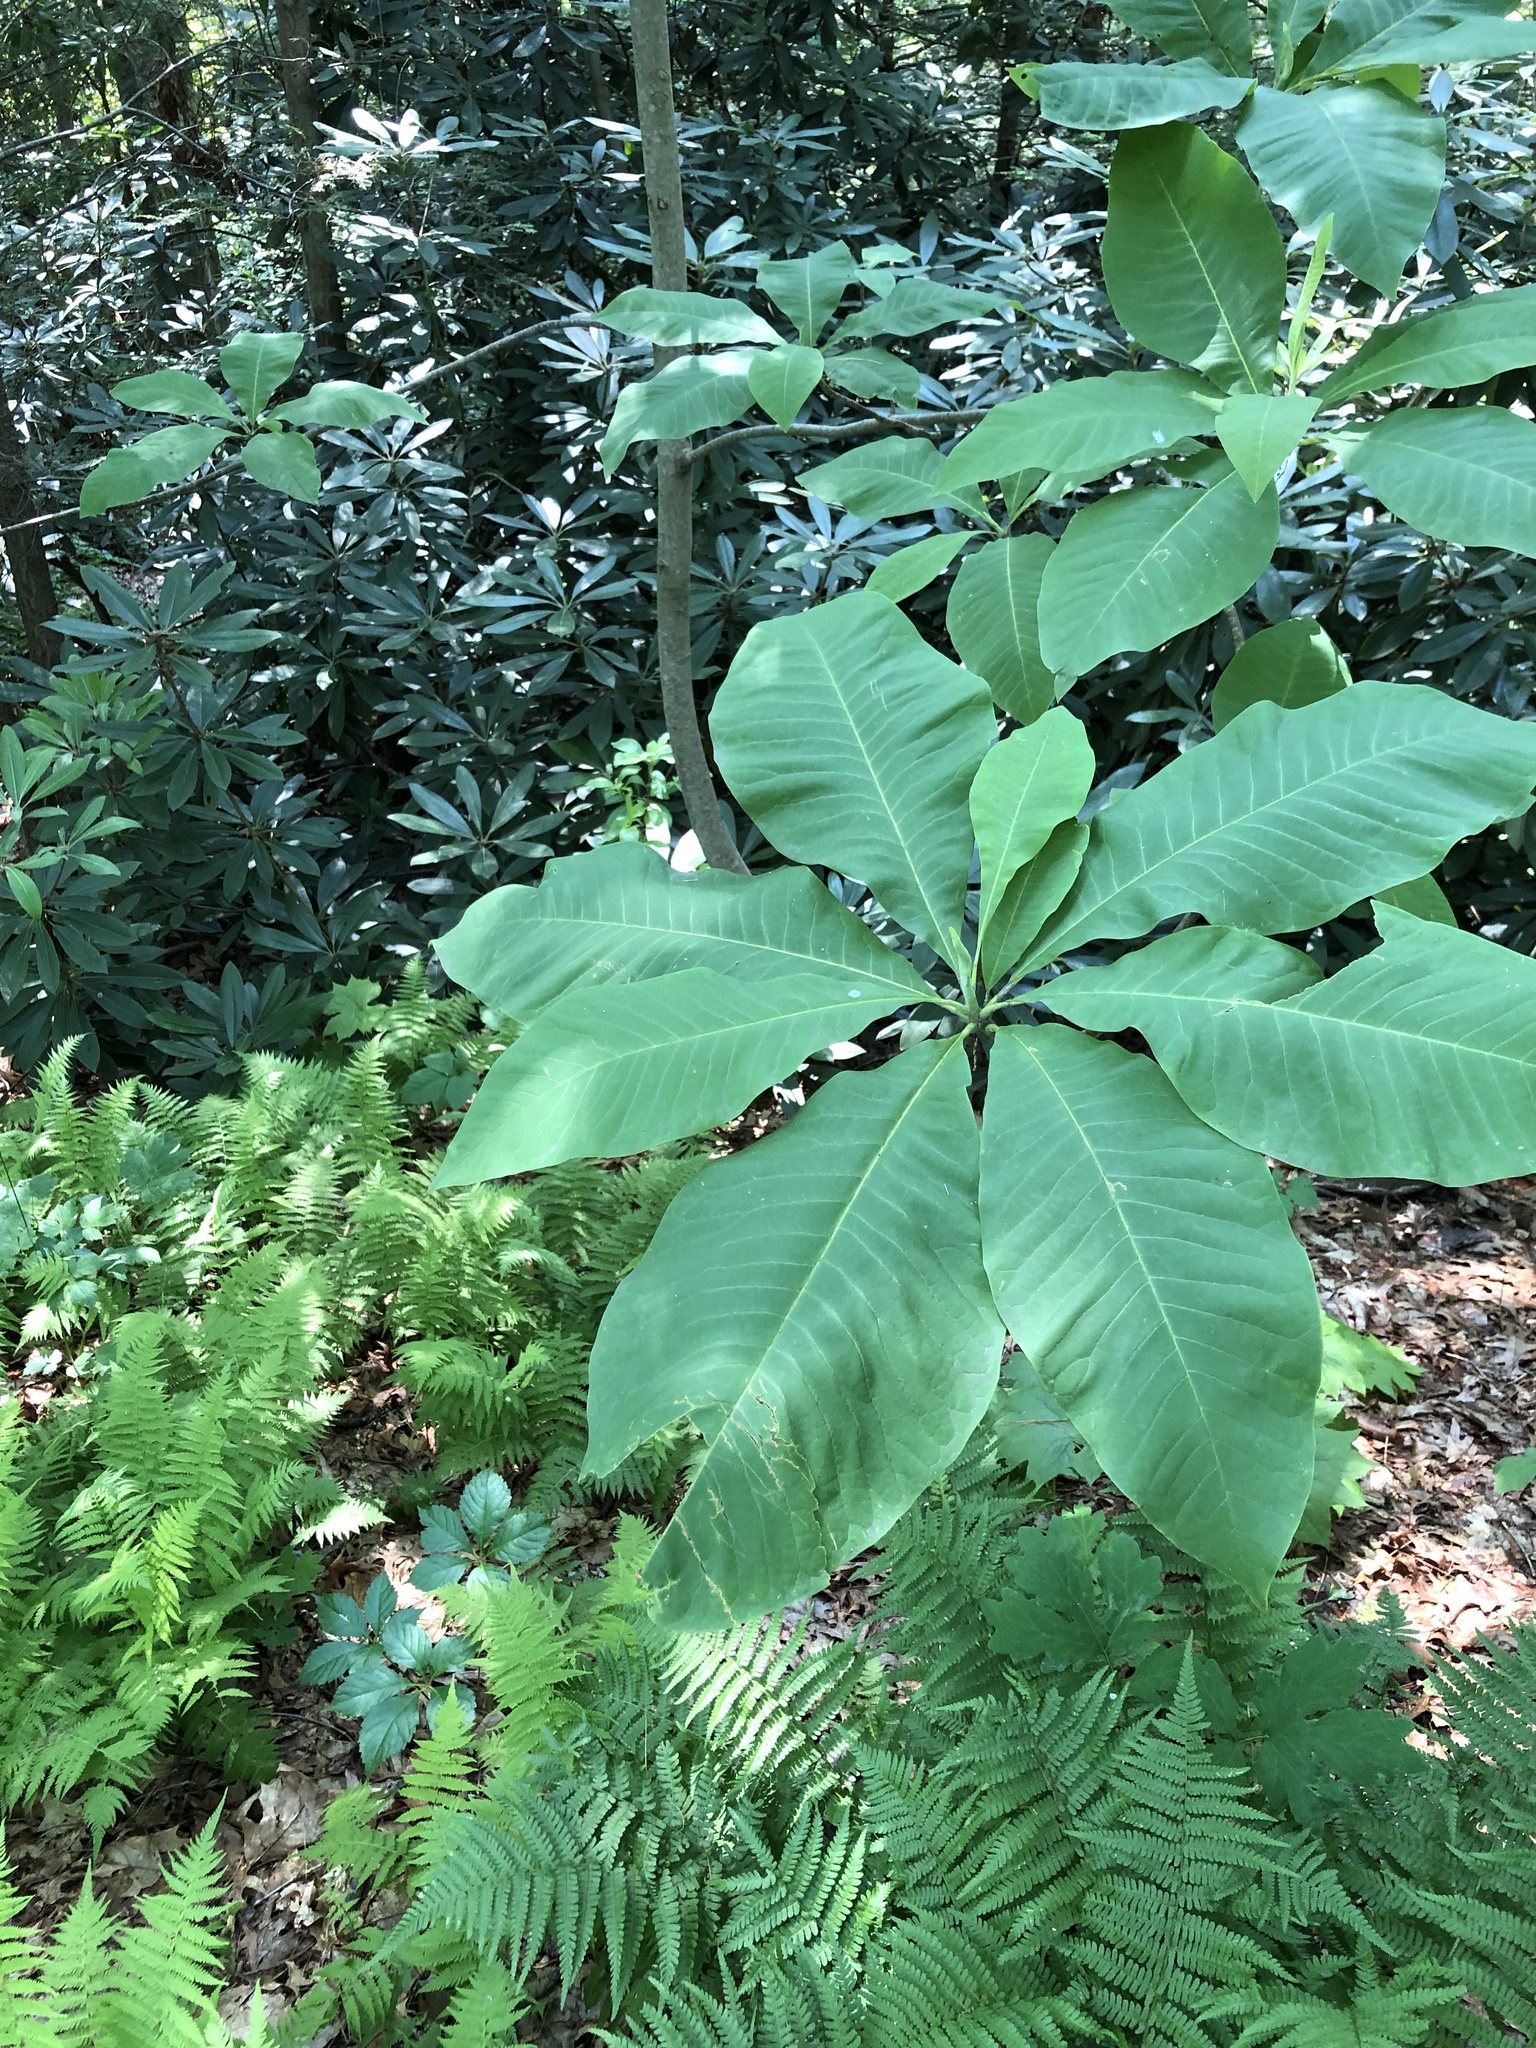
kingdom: Plantae
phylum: Tracheophyta
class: Magnoliopsida
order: Magnoliales
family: Magnoliaceae
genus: Magnolia
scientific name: Magnolia tripetala
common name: Umbrella magnolia
